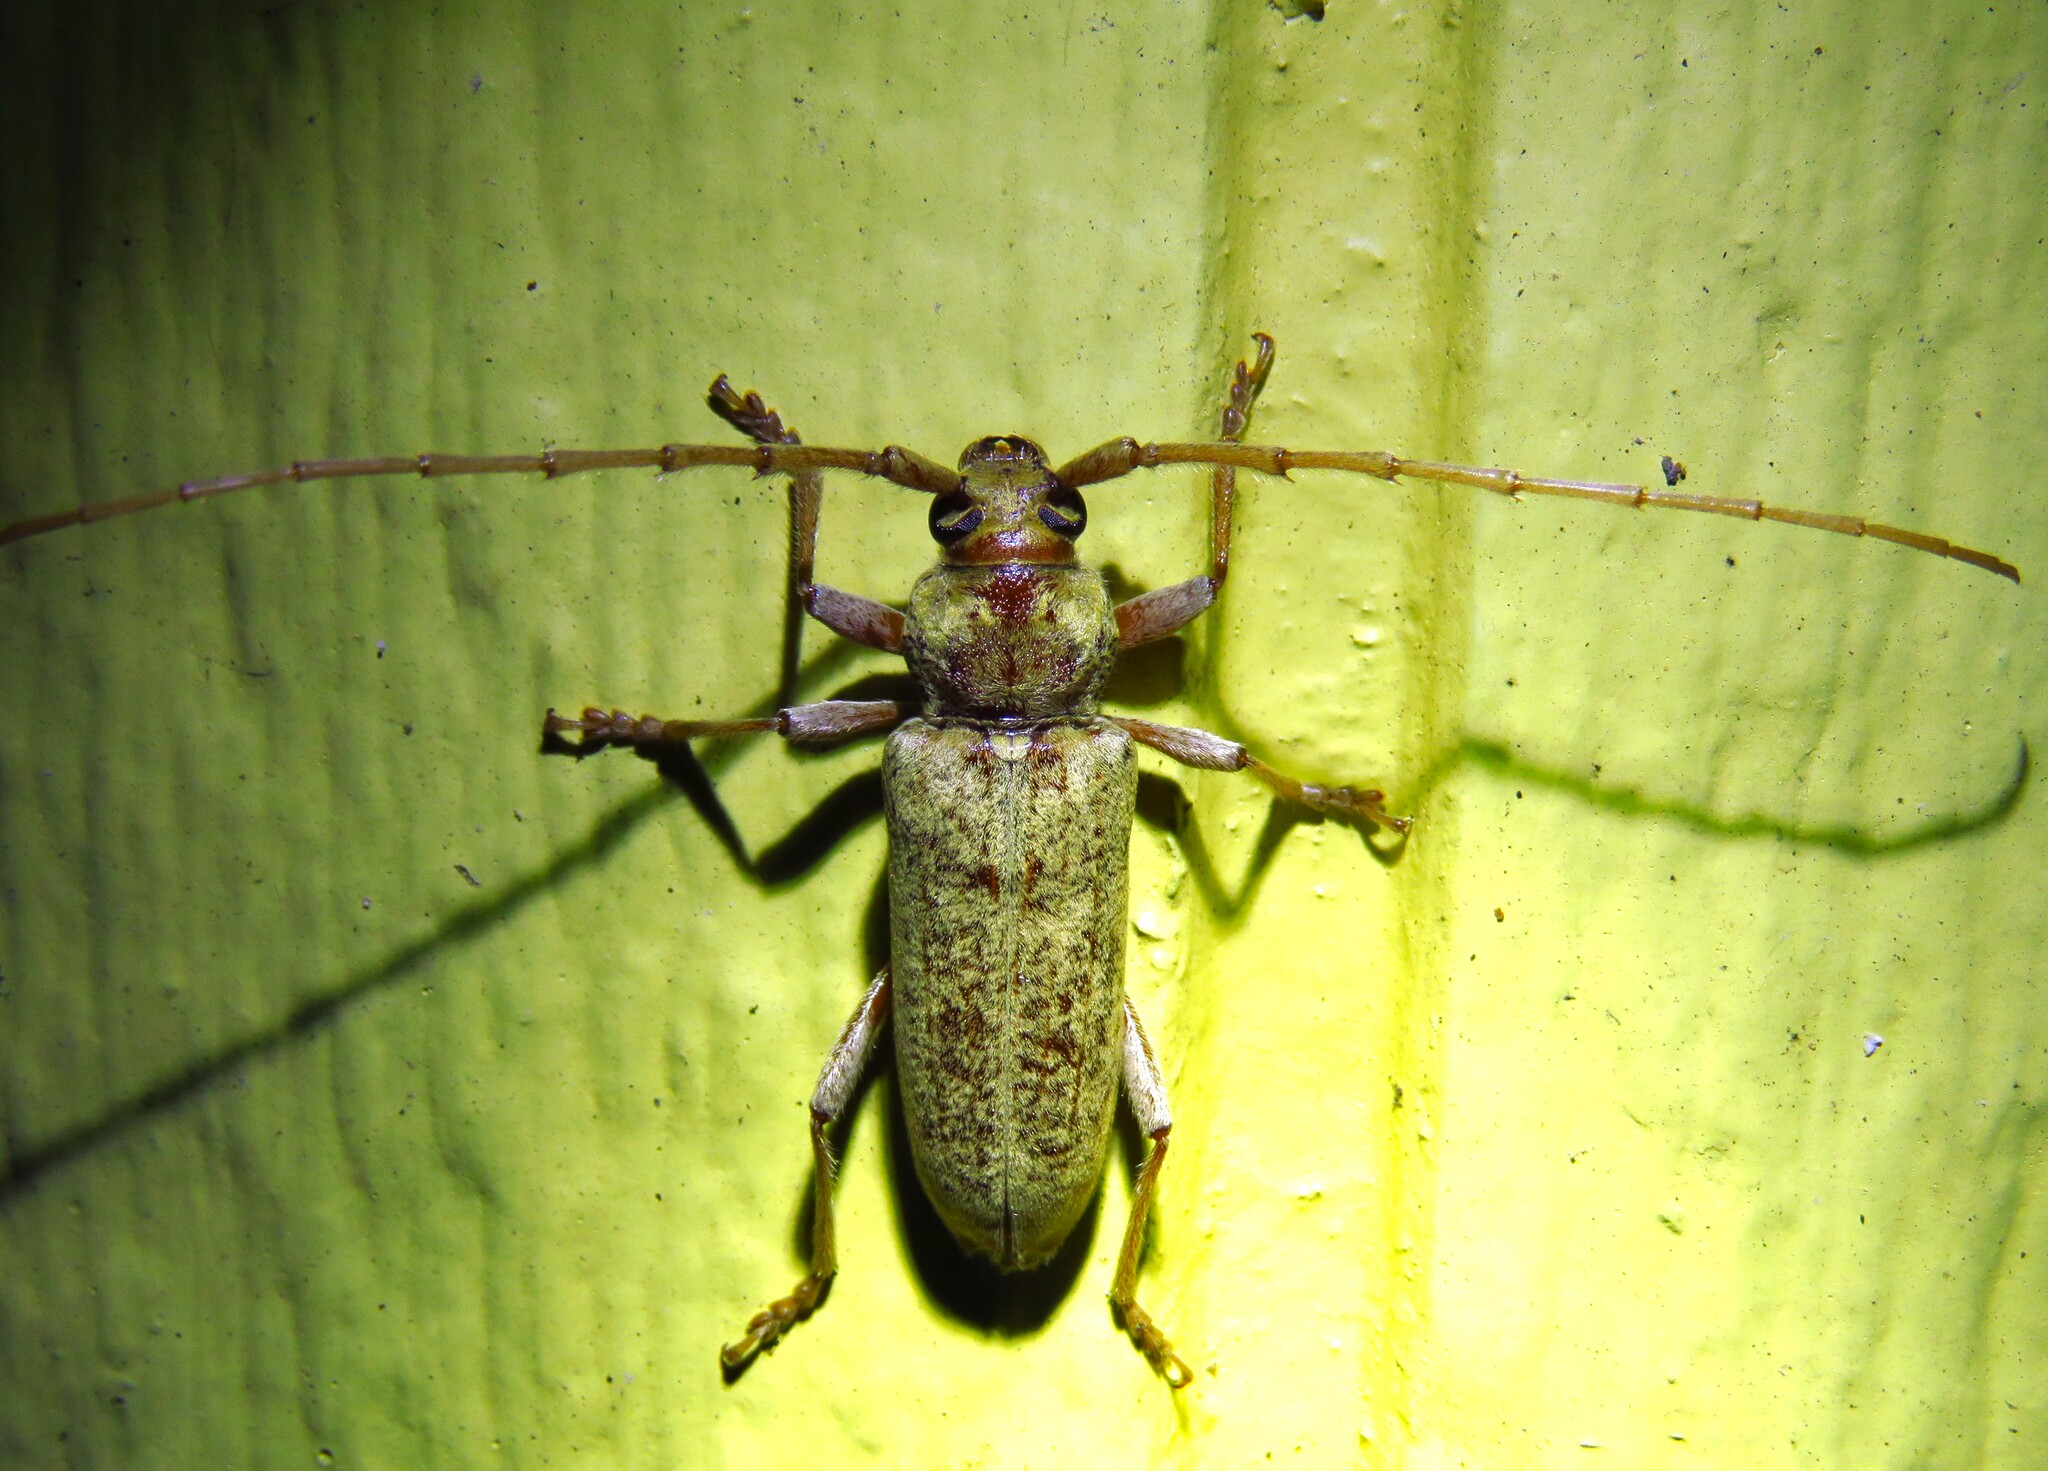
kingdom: Animalia
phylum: Arthropoda
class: Insecta
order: Coleoptera
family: Cerambycidae
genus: Enaphalodes
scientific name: Enaphalodes rufulus
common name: Red oak borer
